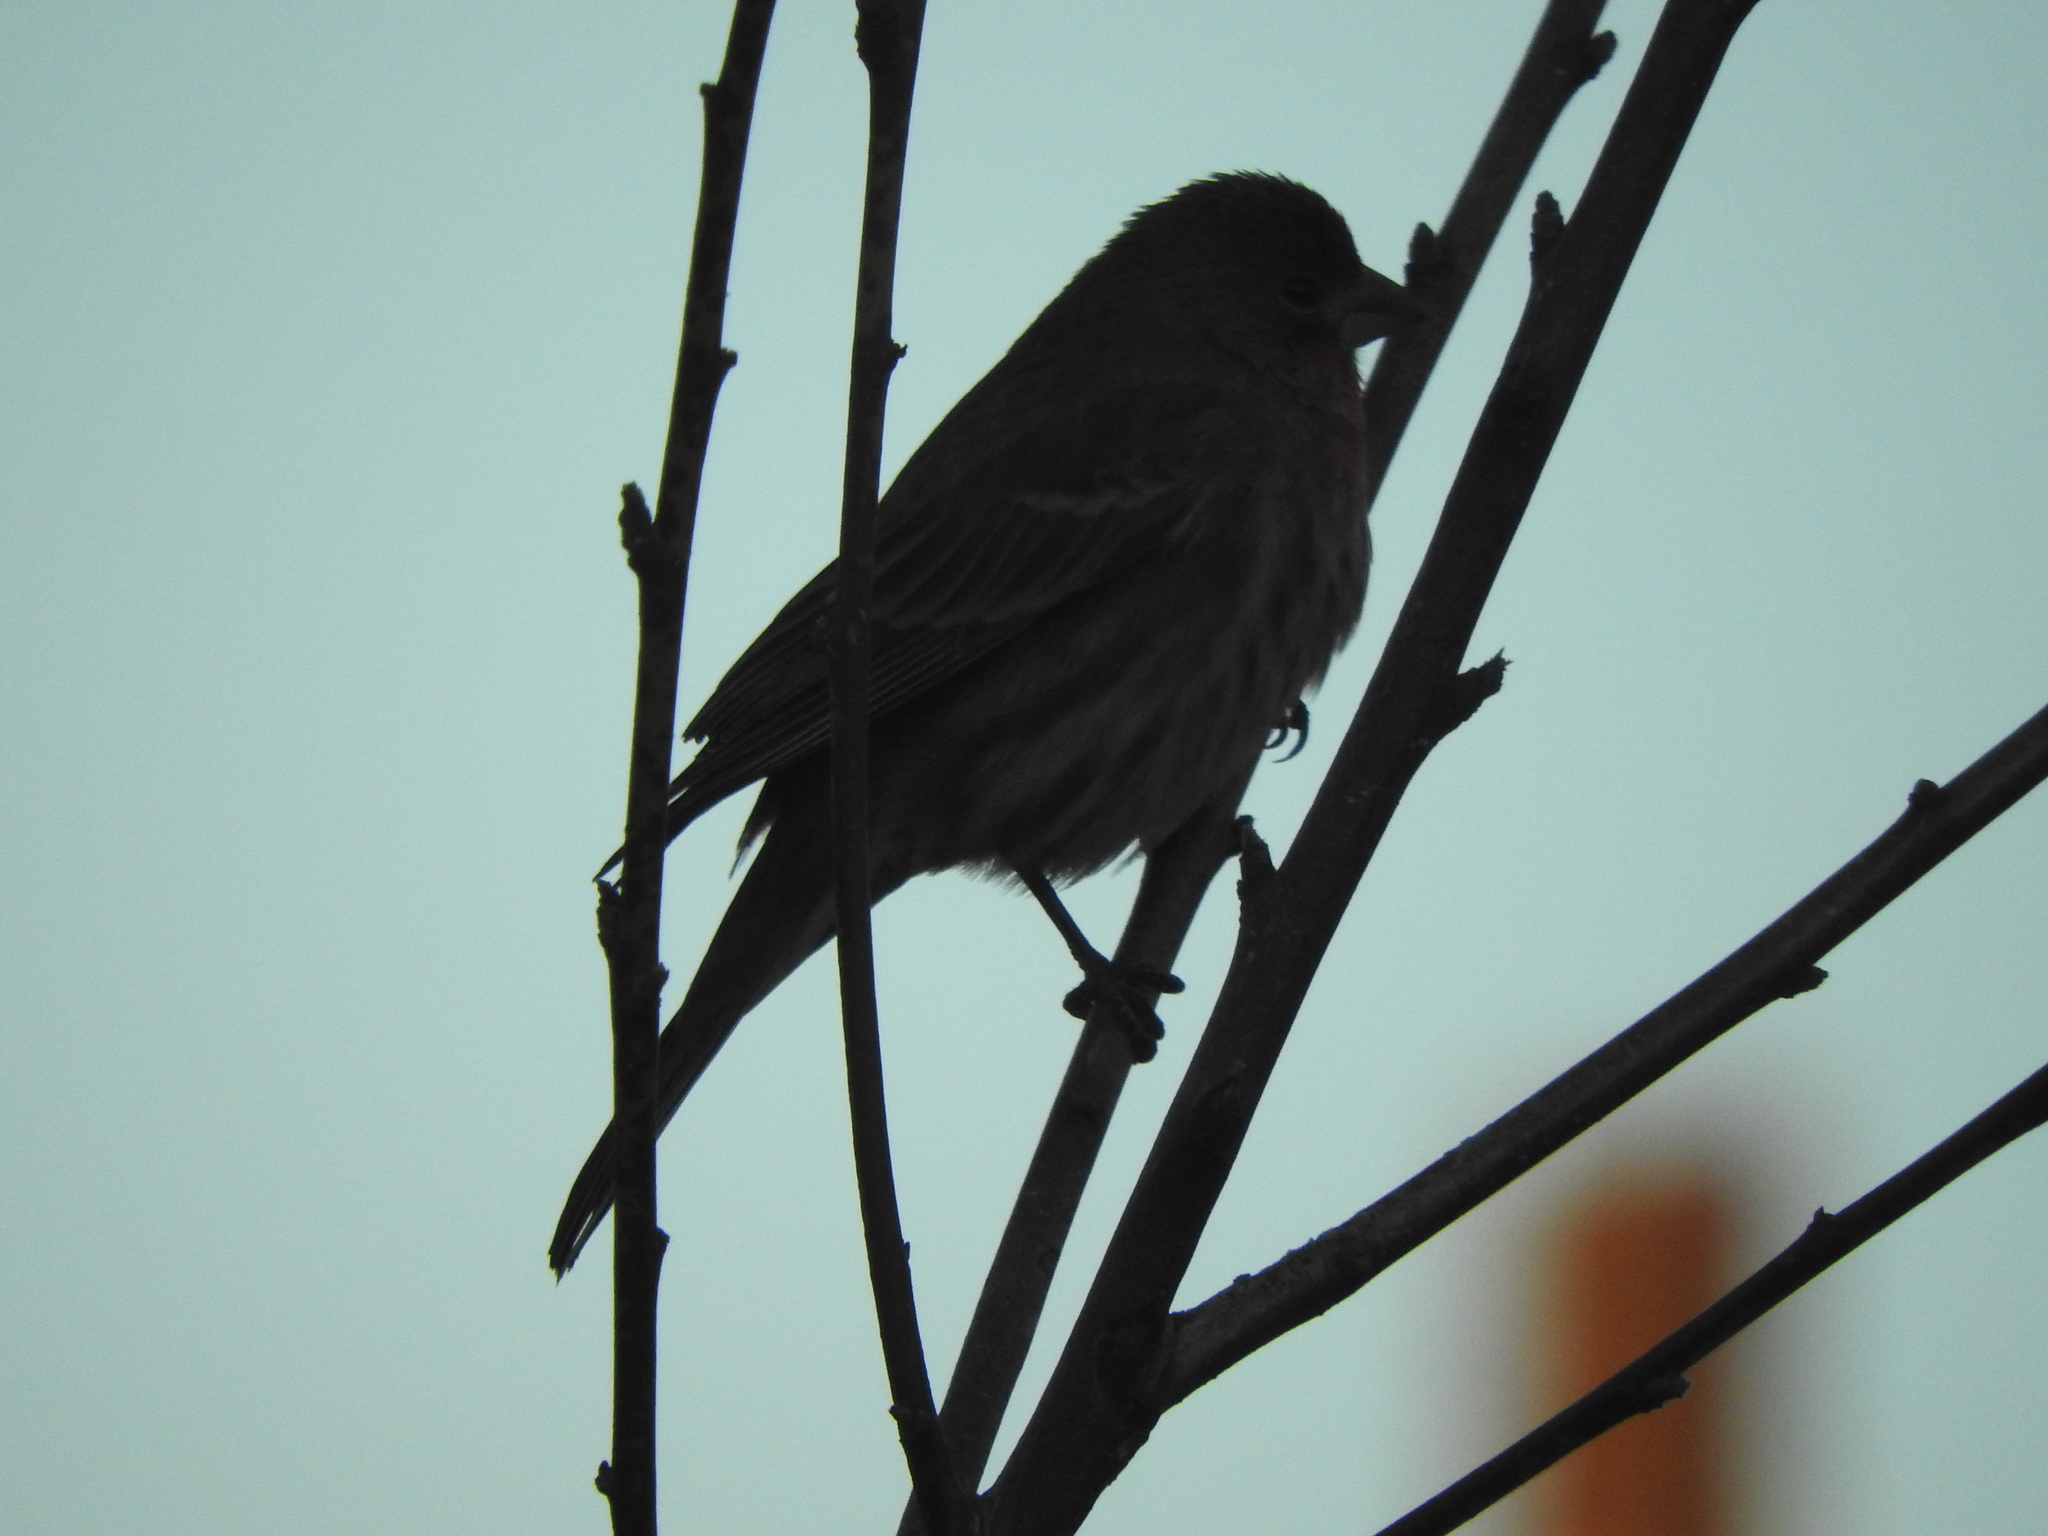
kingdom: Animalia
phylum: Chordata
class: Aves
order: Passeriformes
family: Fringillidae
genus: Haemorhous
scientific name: Haemorhous mexicanus
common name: House finch
